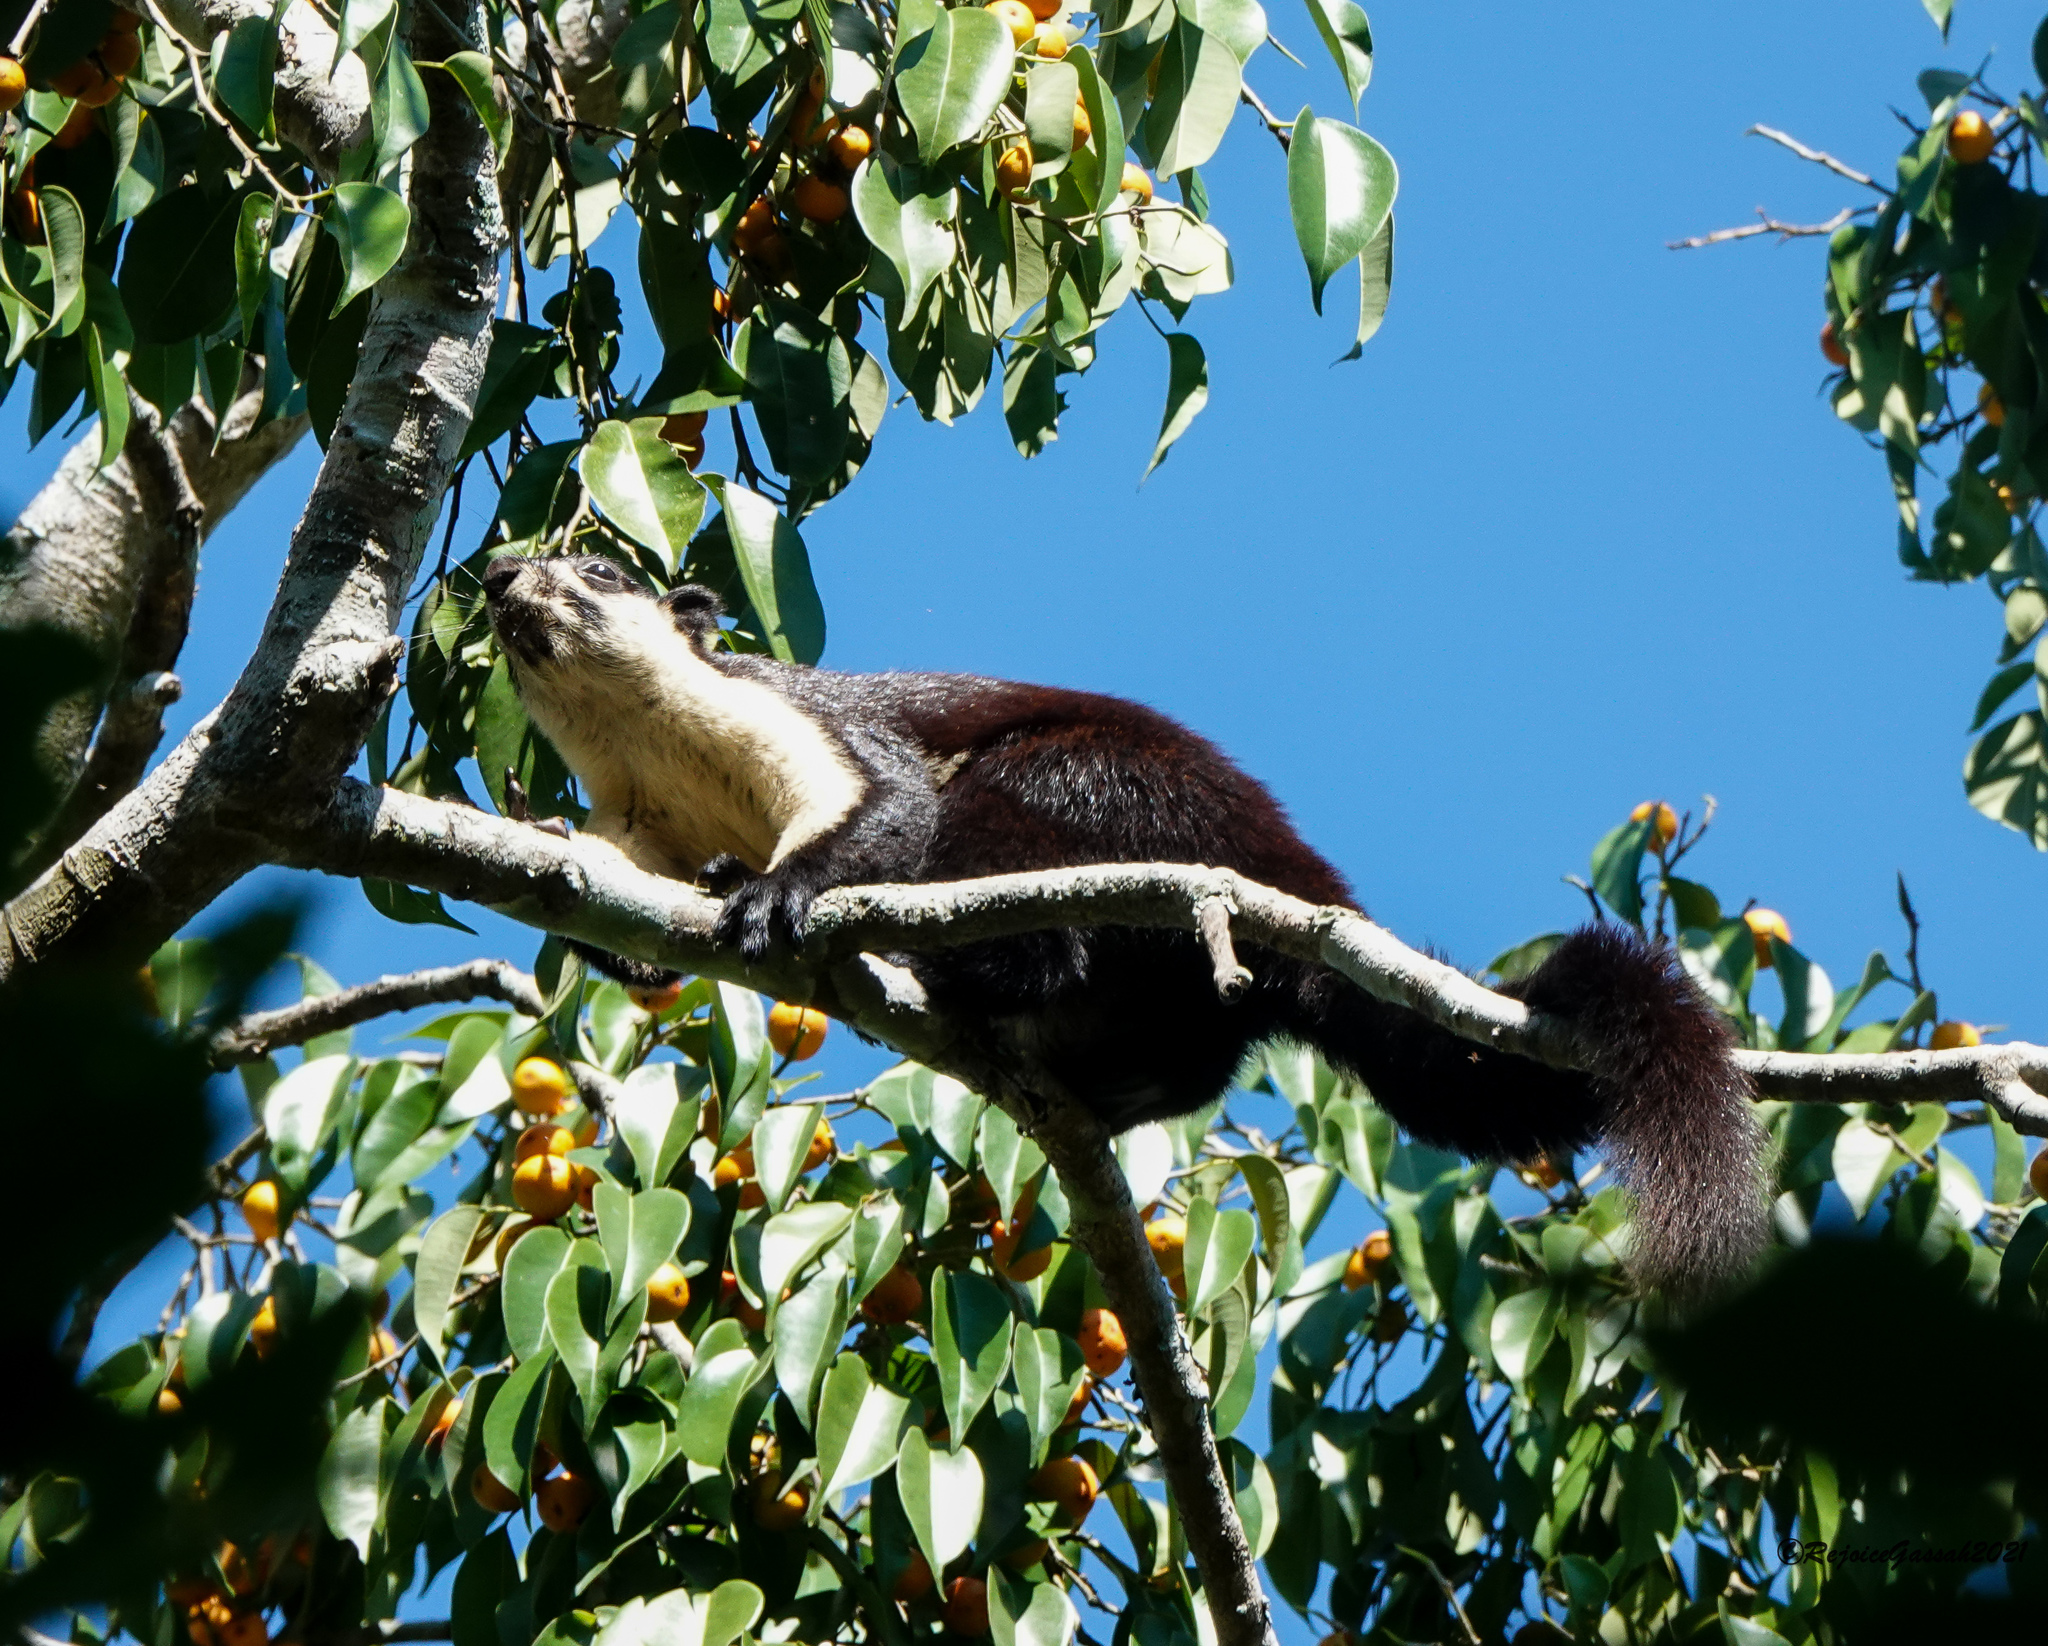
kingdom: Animalia
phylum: Chordata
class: Mammalia
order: Rodentia
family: Sciuridae
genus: Ratufa
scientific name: Ratufa bicolor
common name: Black giant squirrel
